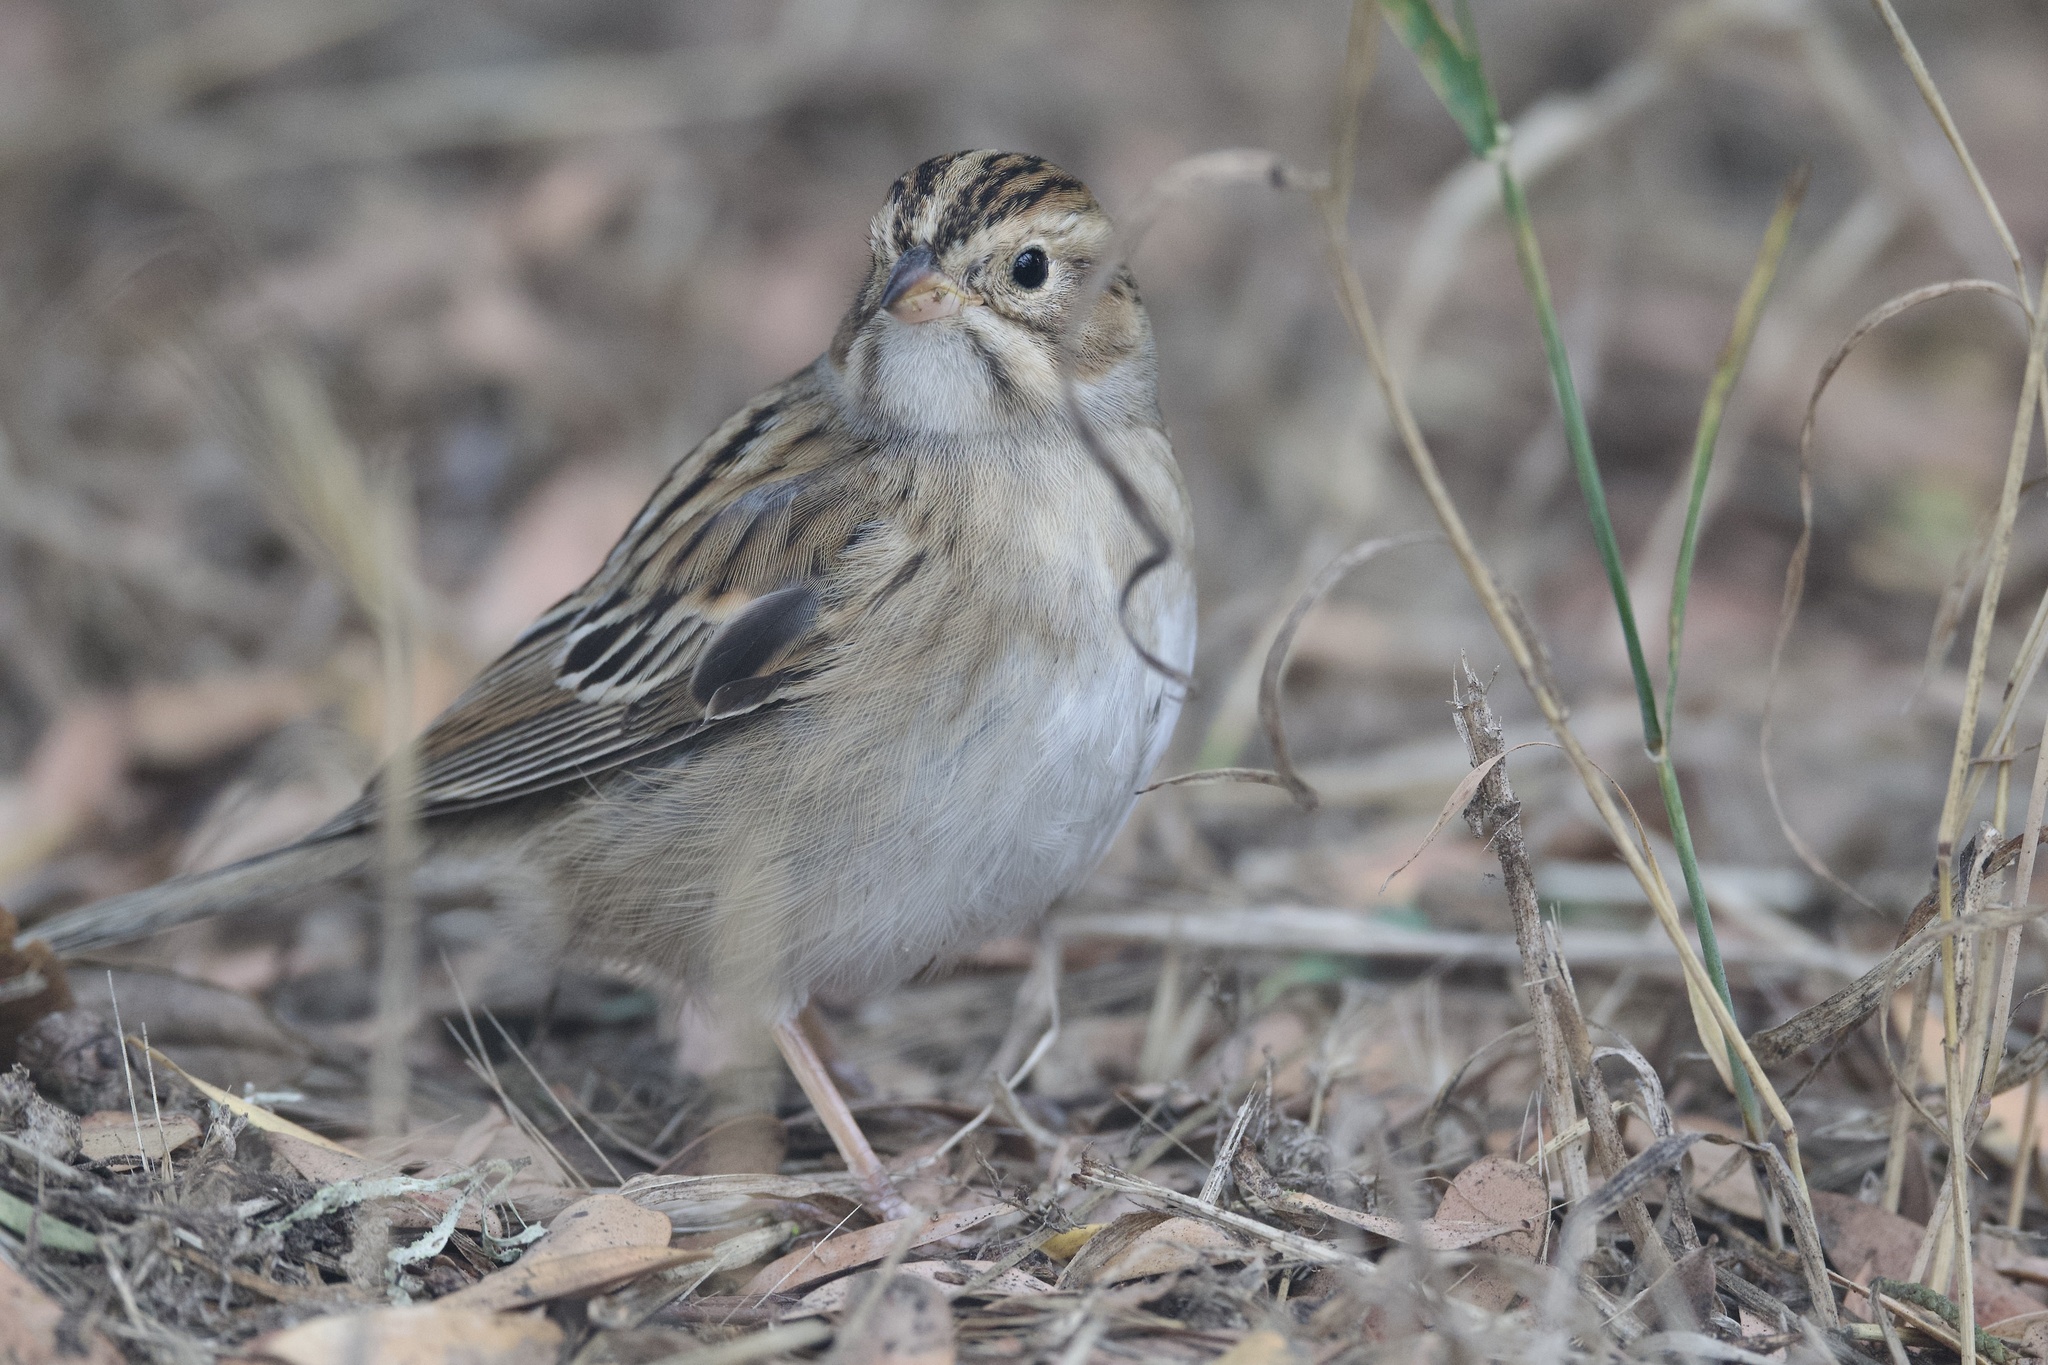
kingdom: Animalia
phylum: Chordata
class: Aves
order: Passeriformes
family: Passerellidae
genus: Spizella
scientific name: Spizella pallida
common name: Clay-colored sparrow
